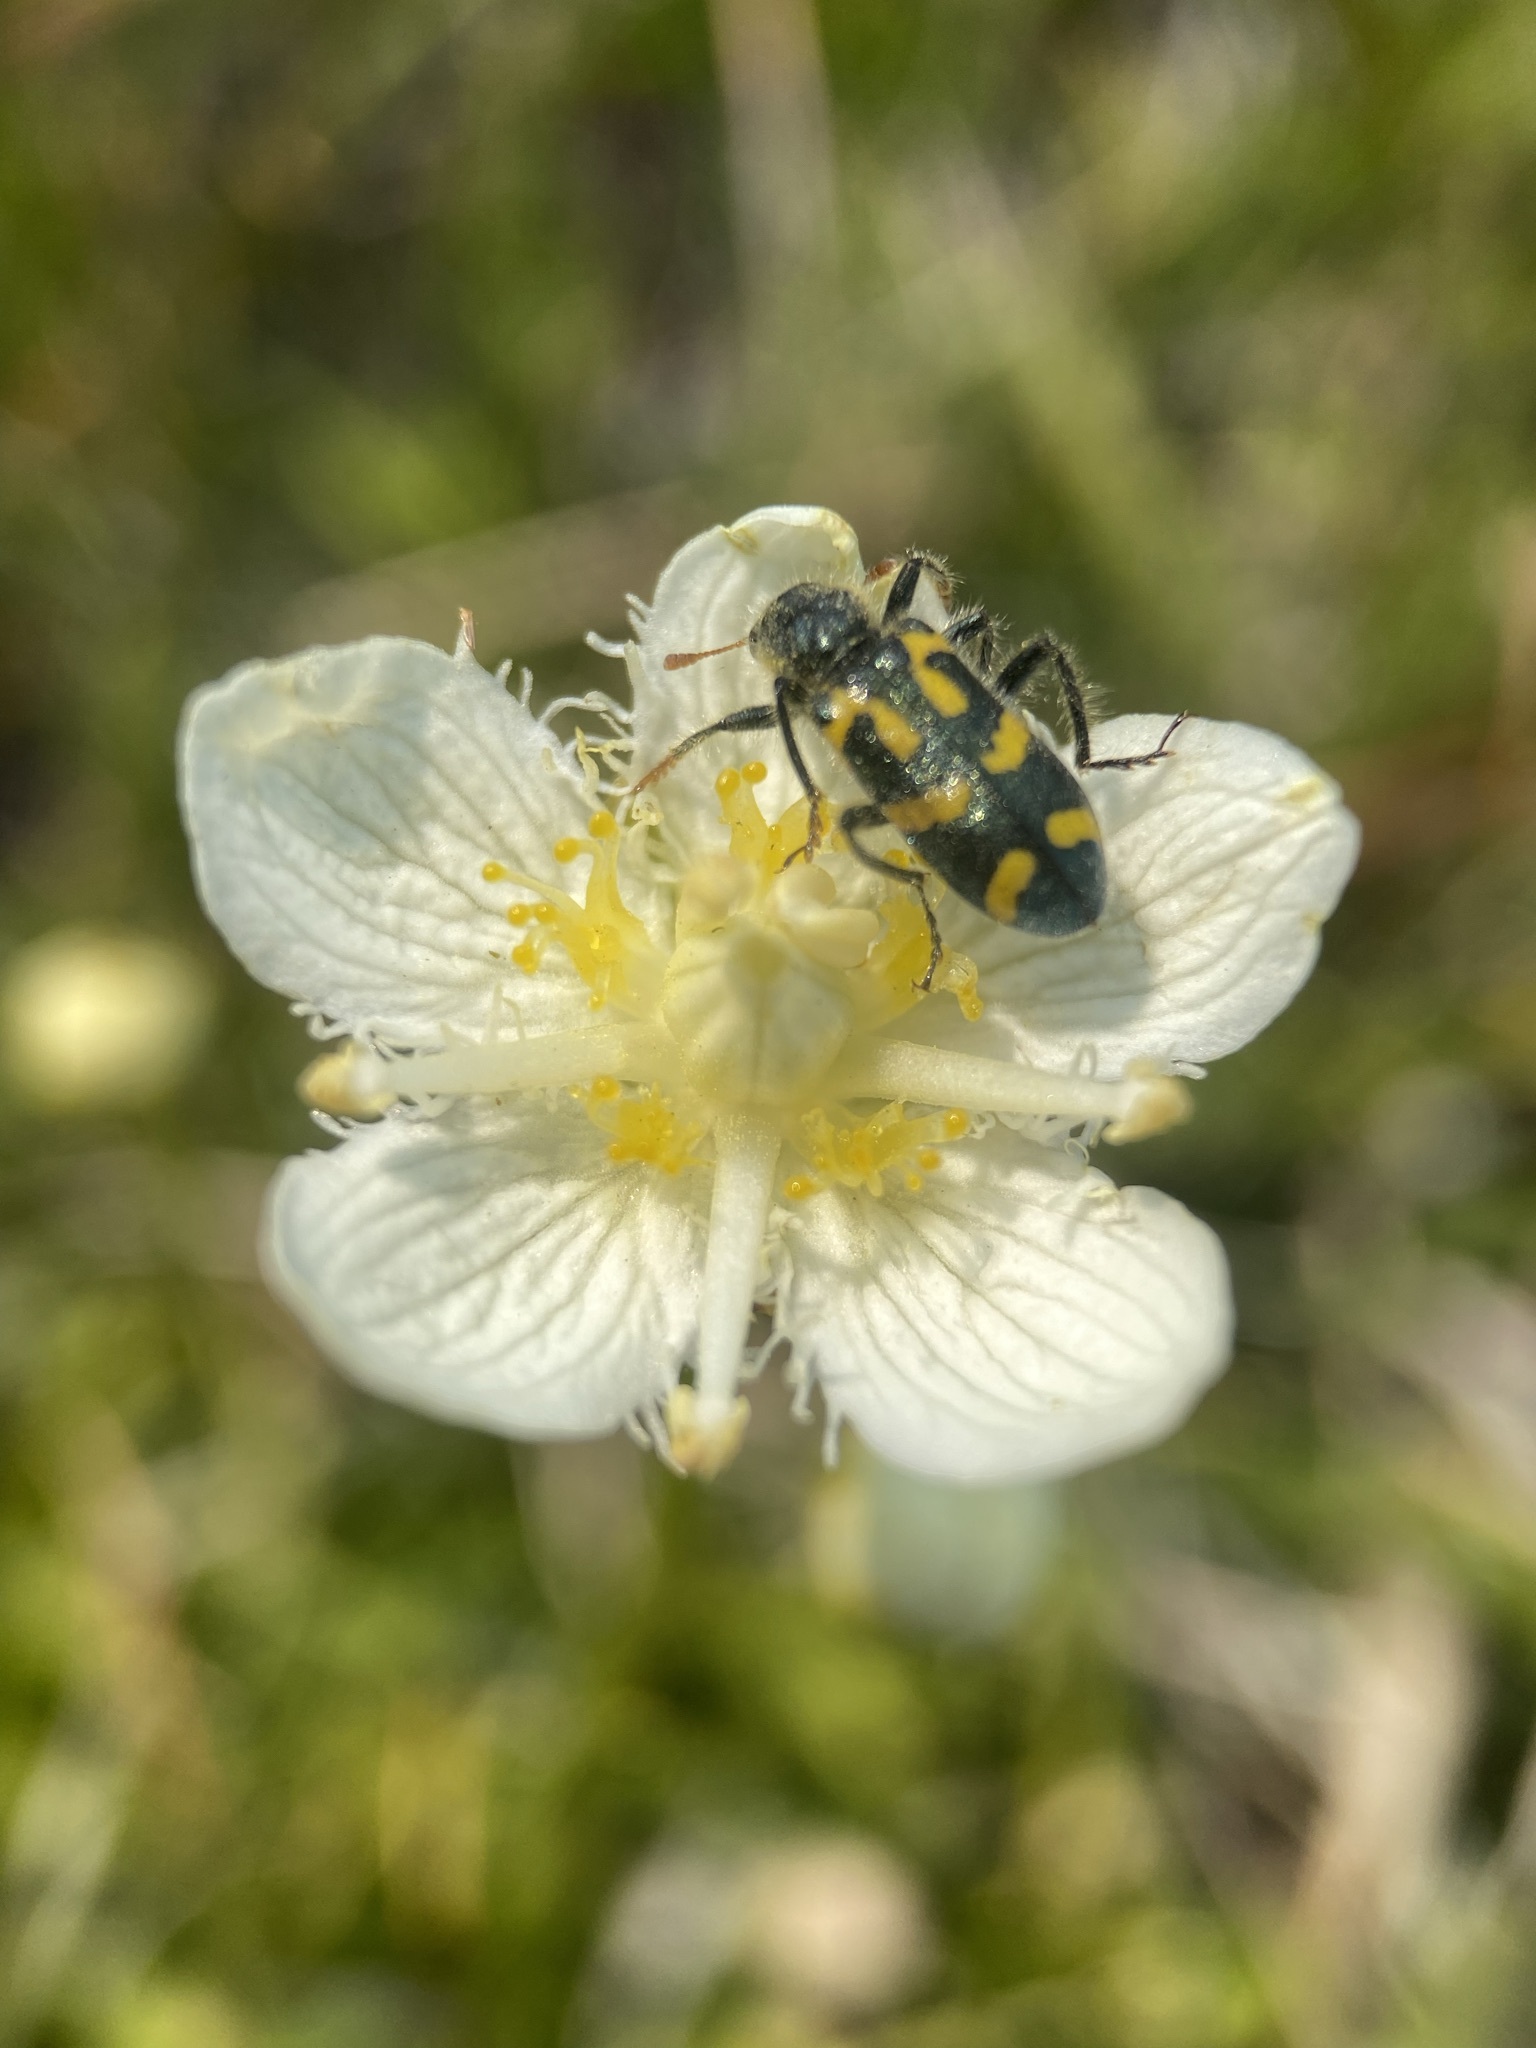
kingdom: Animalia
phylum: Arthropoda
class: Insecta
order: Coleoptera
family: Cleridae
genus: Trichodes
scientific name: Trichodes ornatus
